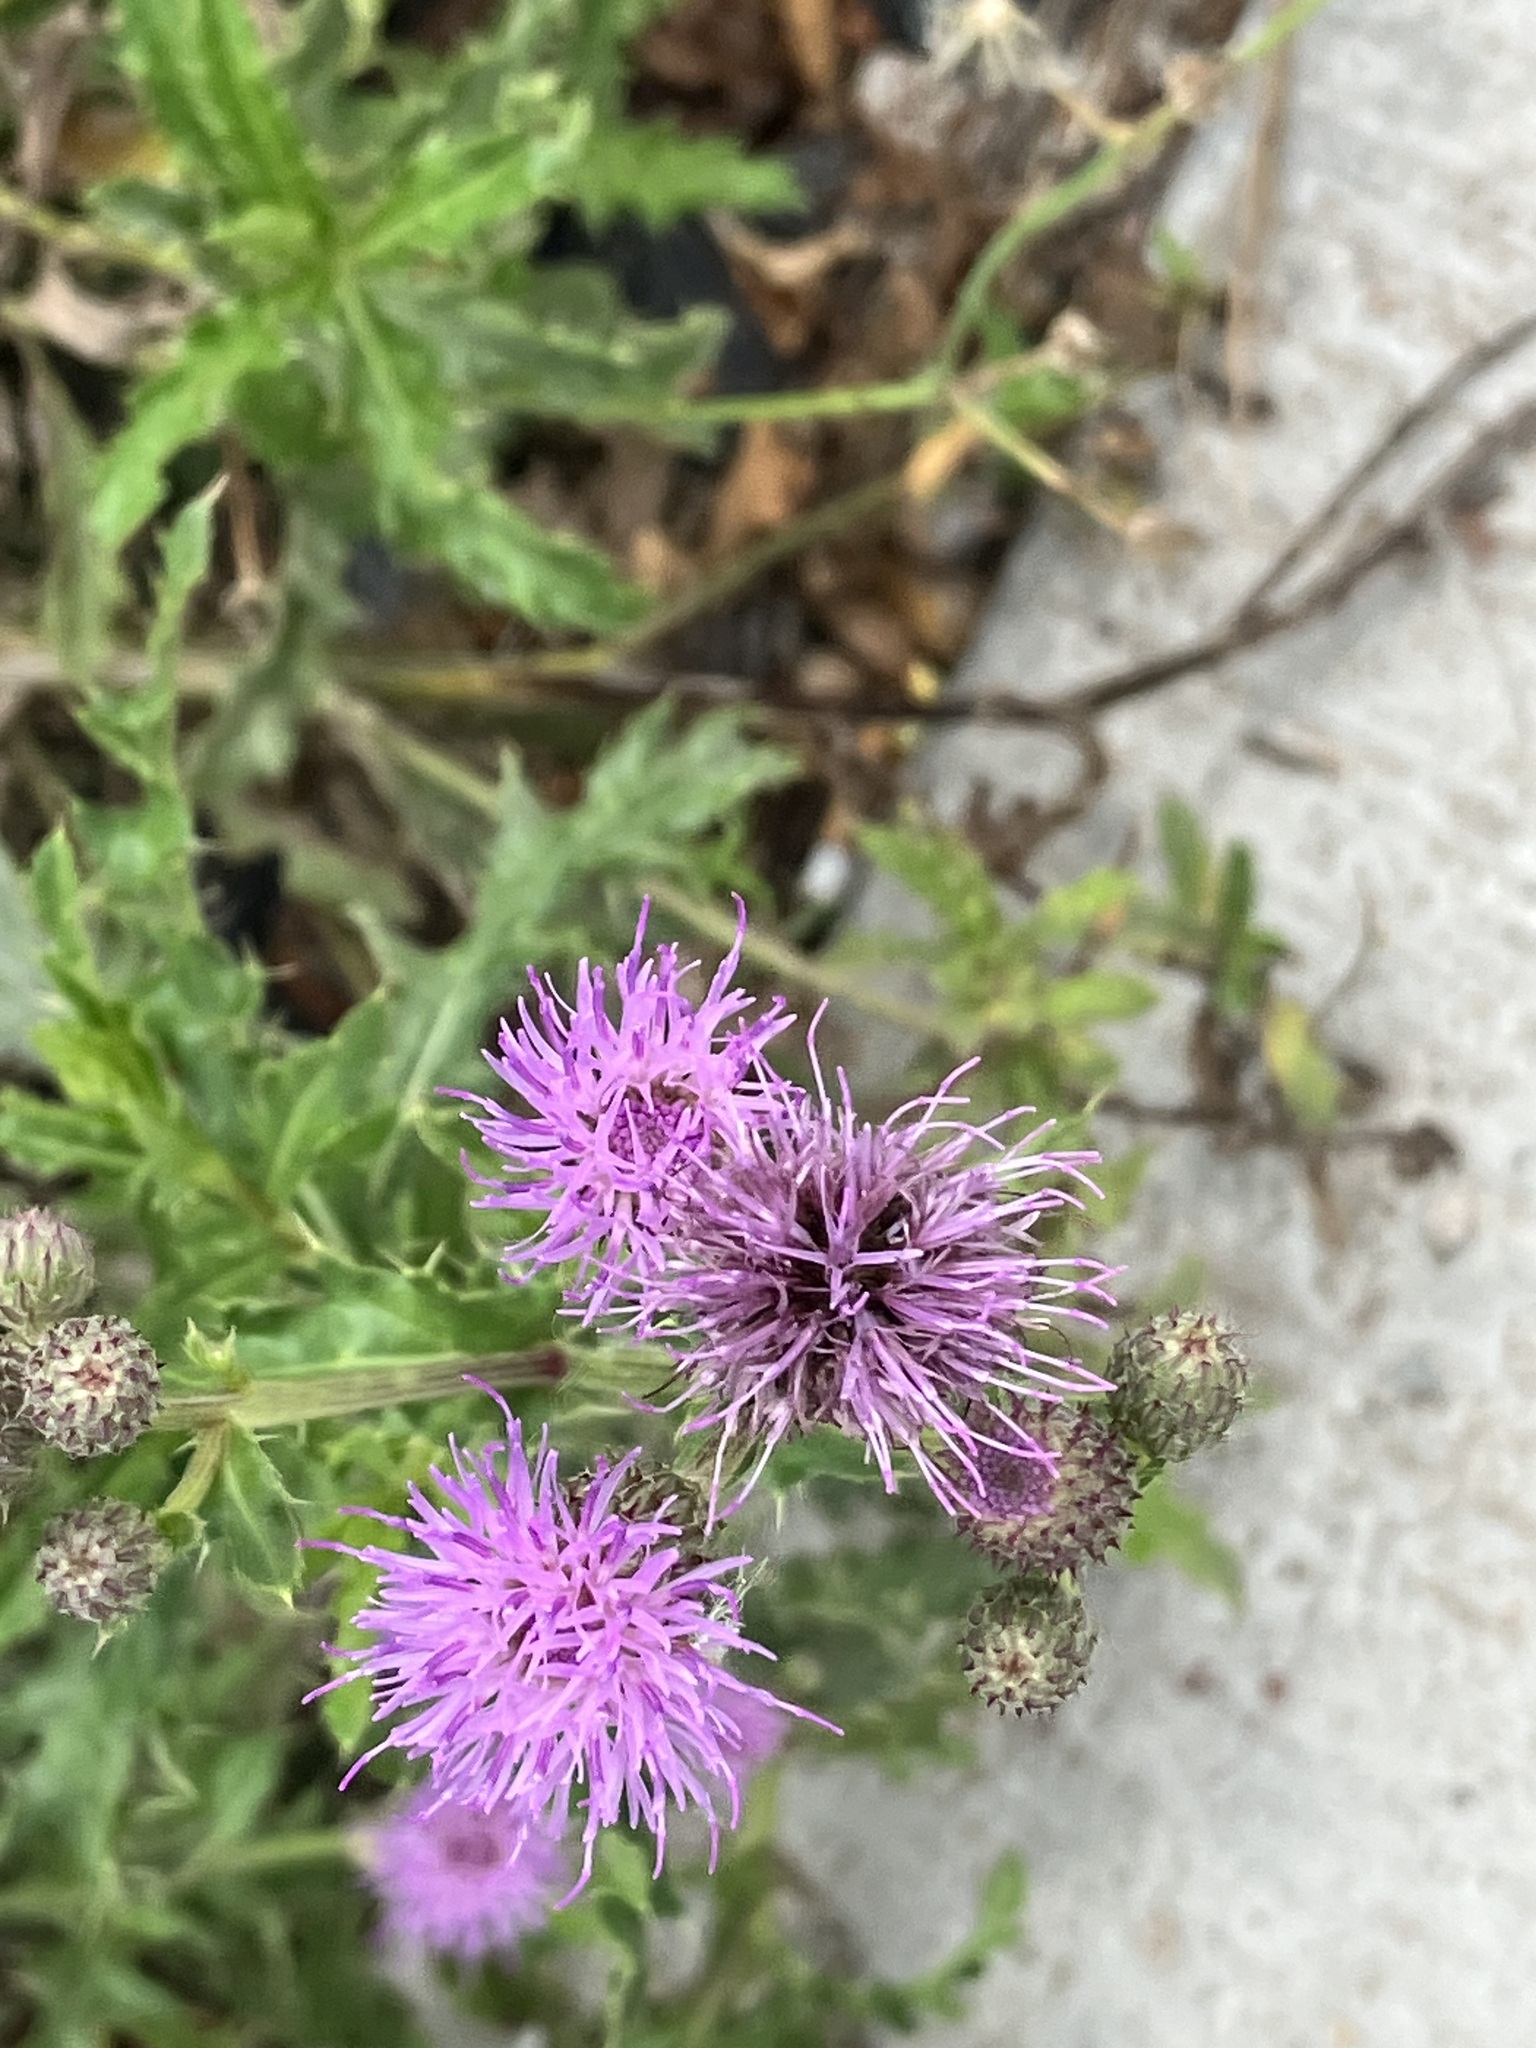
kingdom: Plantae
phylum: Tracheophyta
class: Magnoliopsida
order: Asterales
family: Asteraceae
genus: Cirsium
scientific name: Cirsium arvense
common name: Creeping thistle
